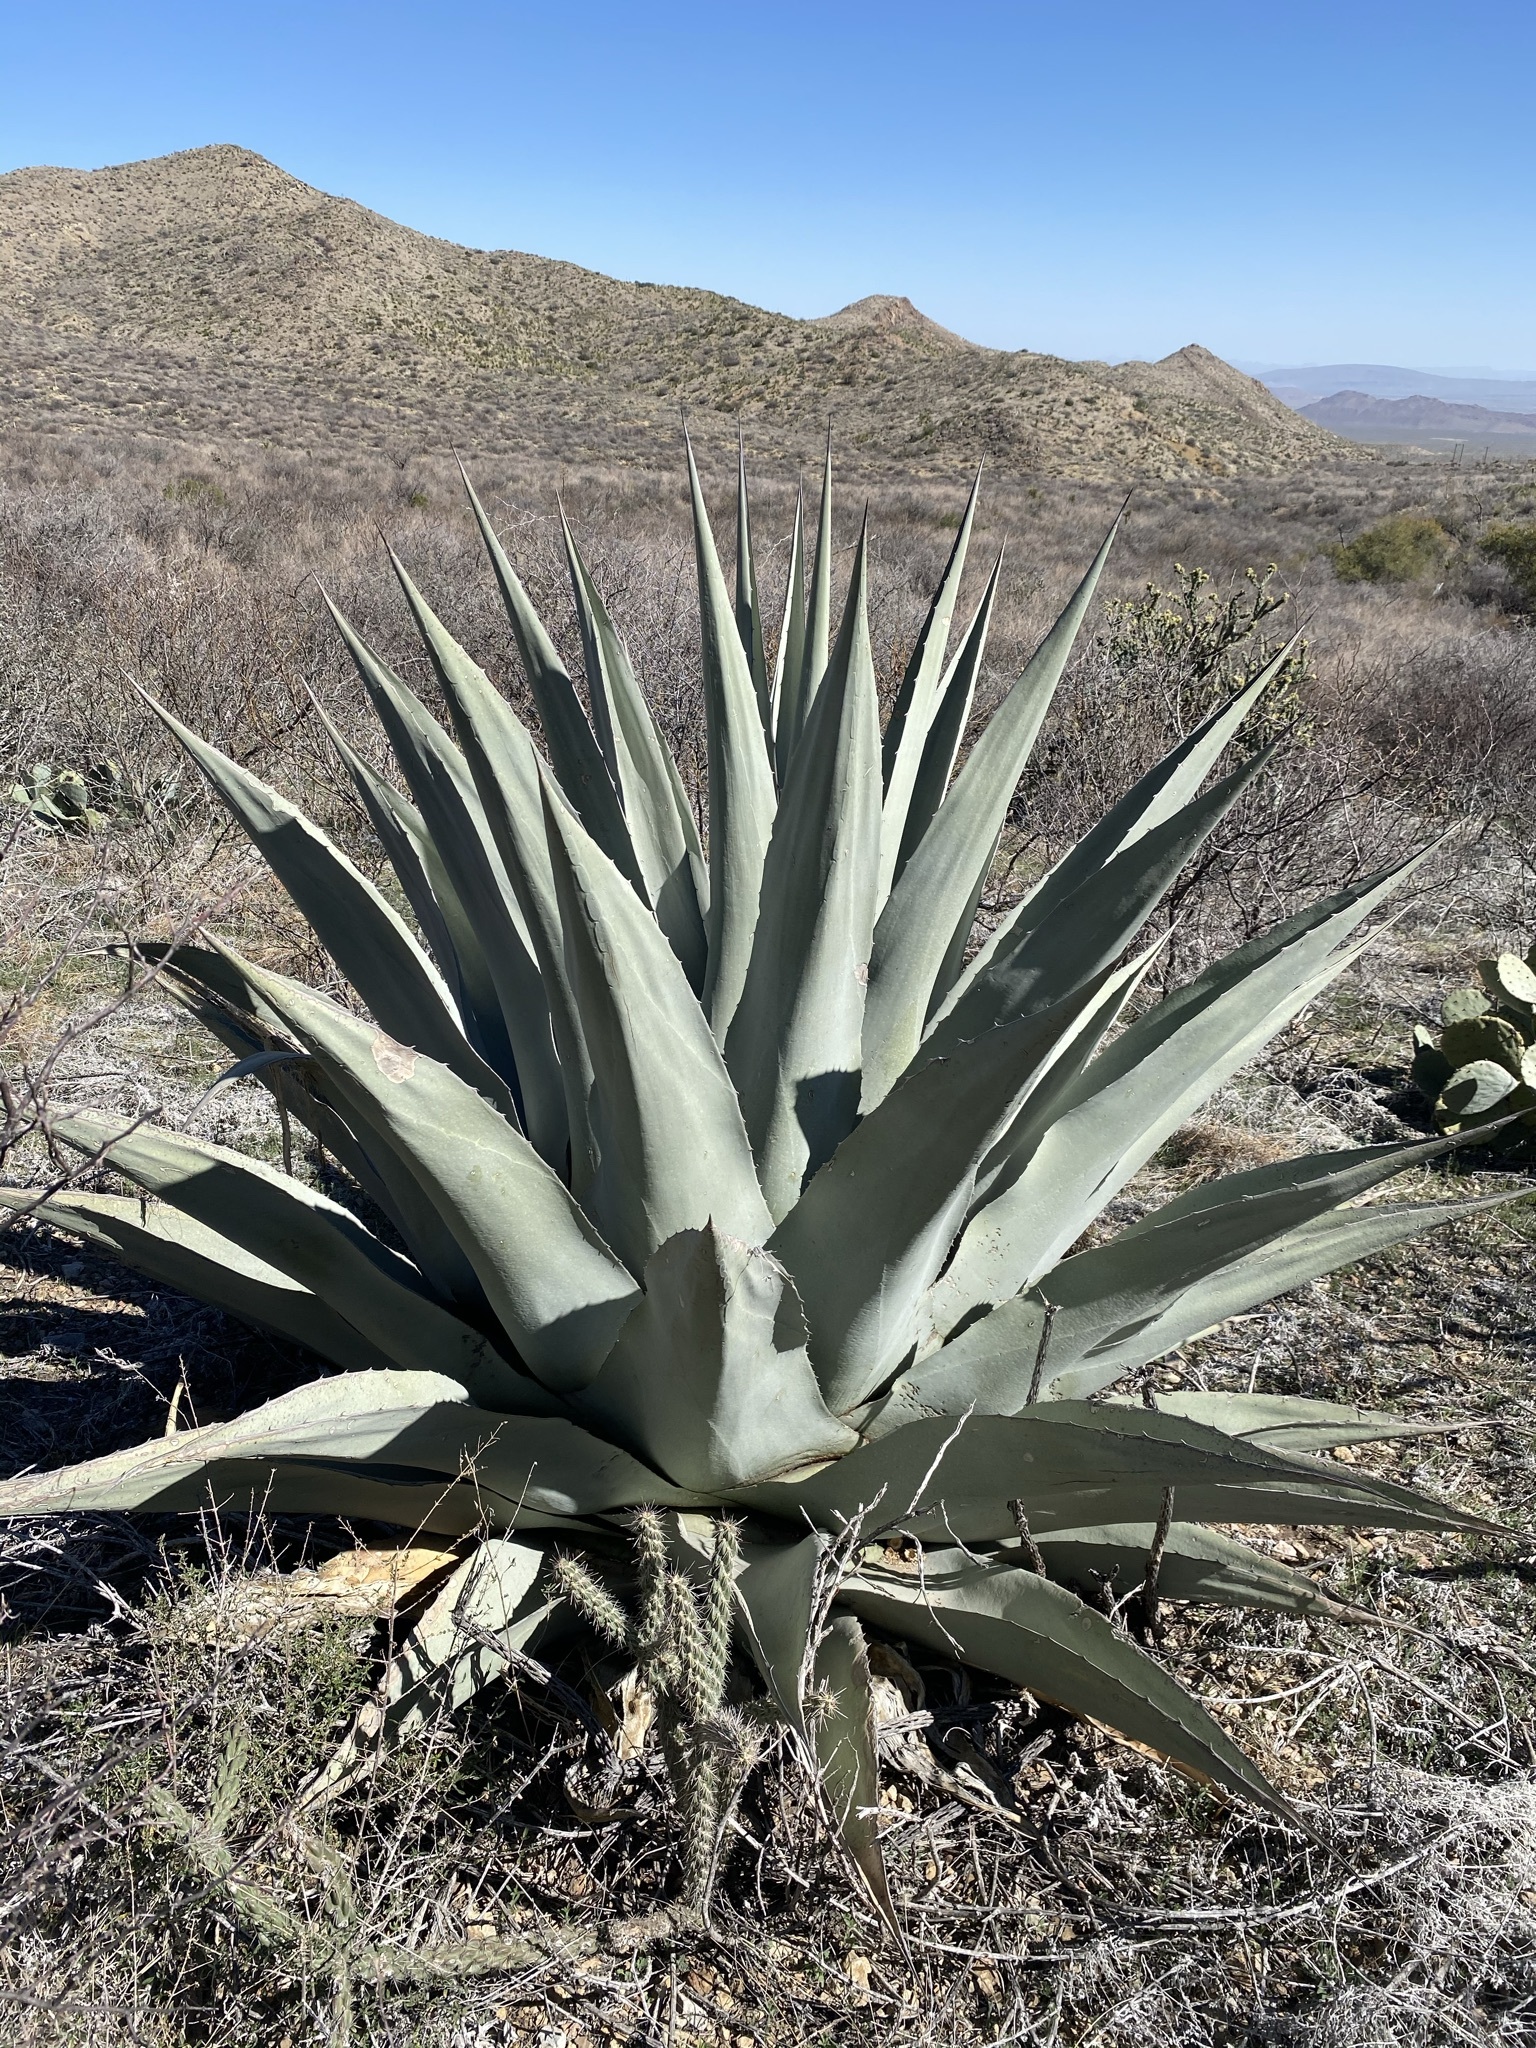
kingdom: Plantae
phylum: Tracheophyta
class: Liliopsida
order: Asparagales
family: Asparagaceae
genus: Agave
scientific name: Agave havardiana
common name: Havard agave
